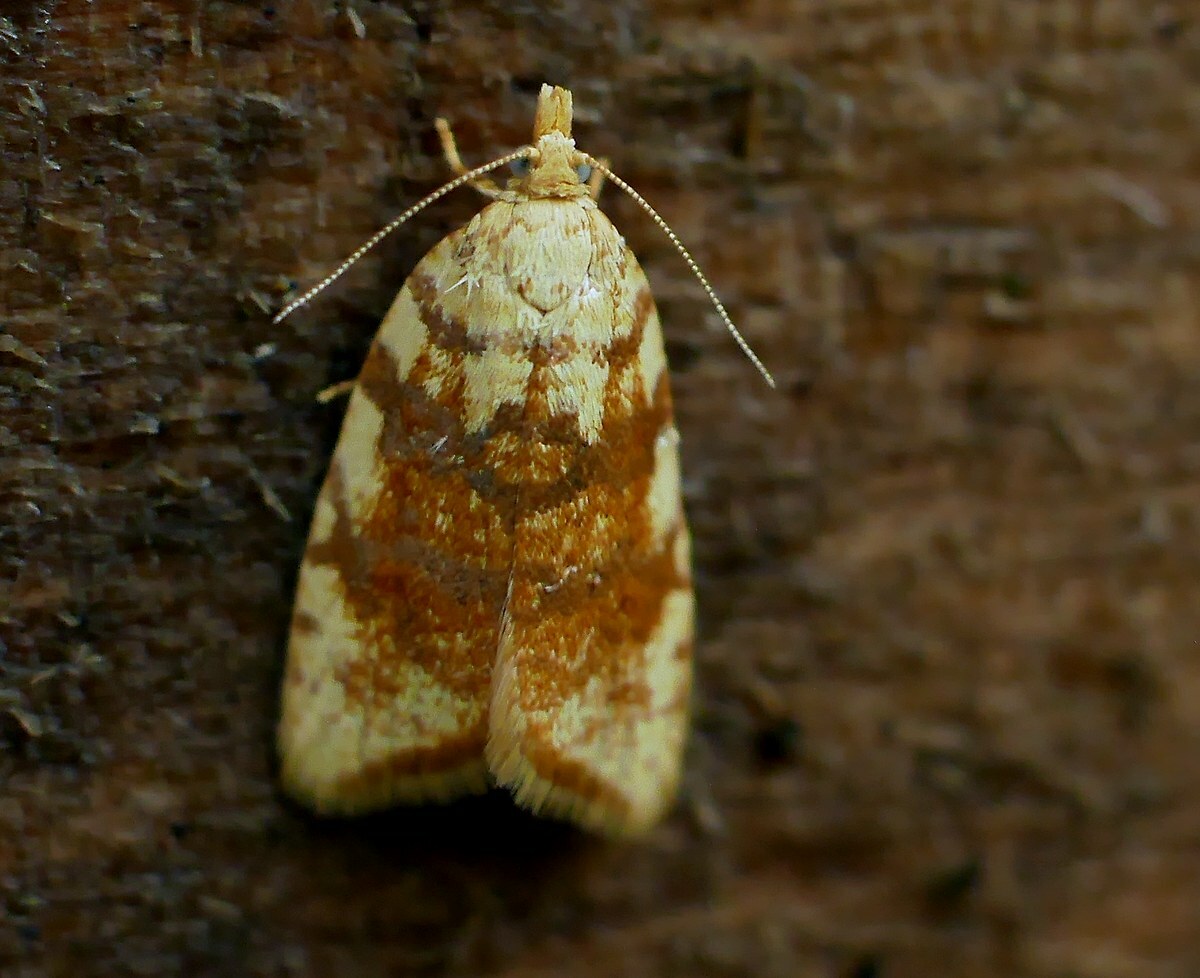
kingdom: Animalia
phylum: Arthropoda
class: Insecta
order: Lepidoptera
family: Tortricidae
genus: Aleimma
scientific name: Aleimma loeflingiana
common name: Yellow oak button
